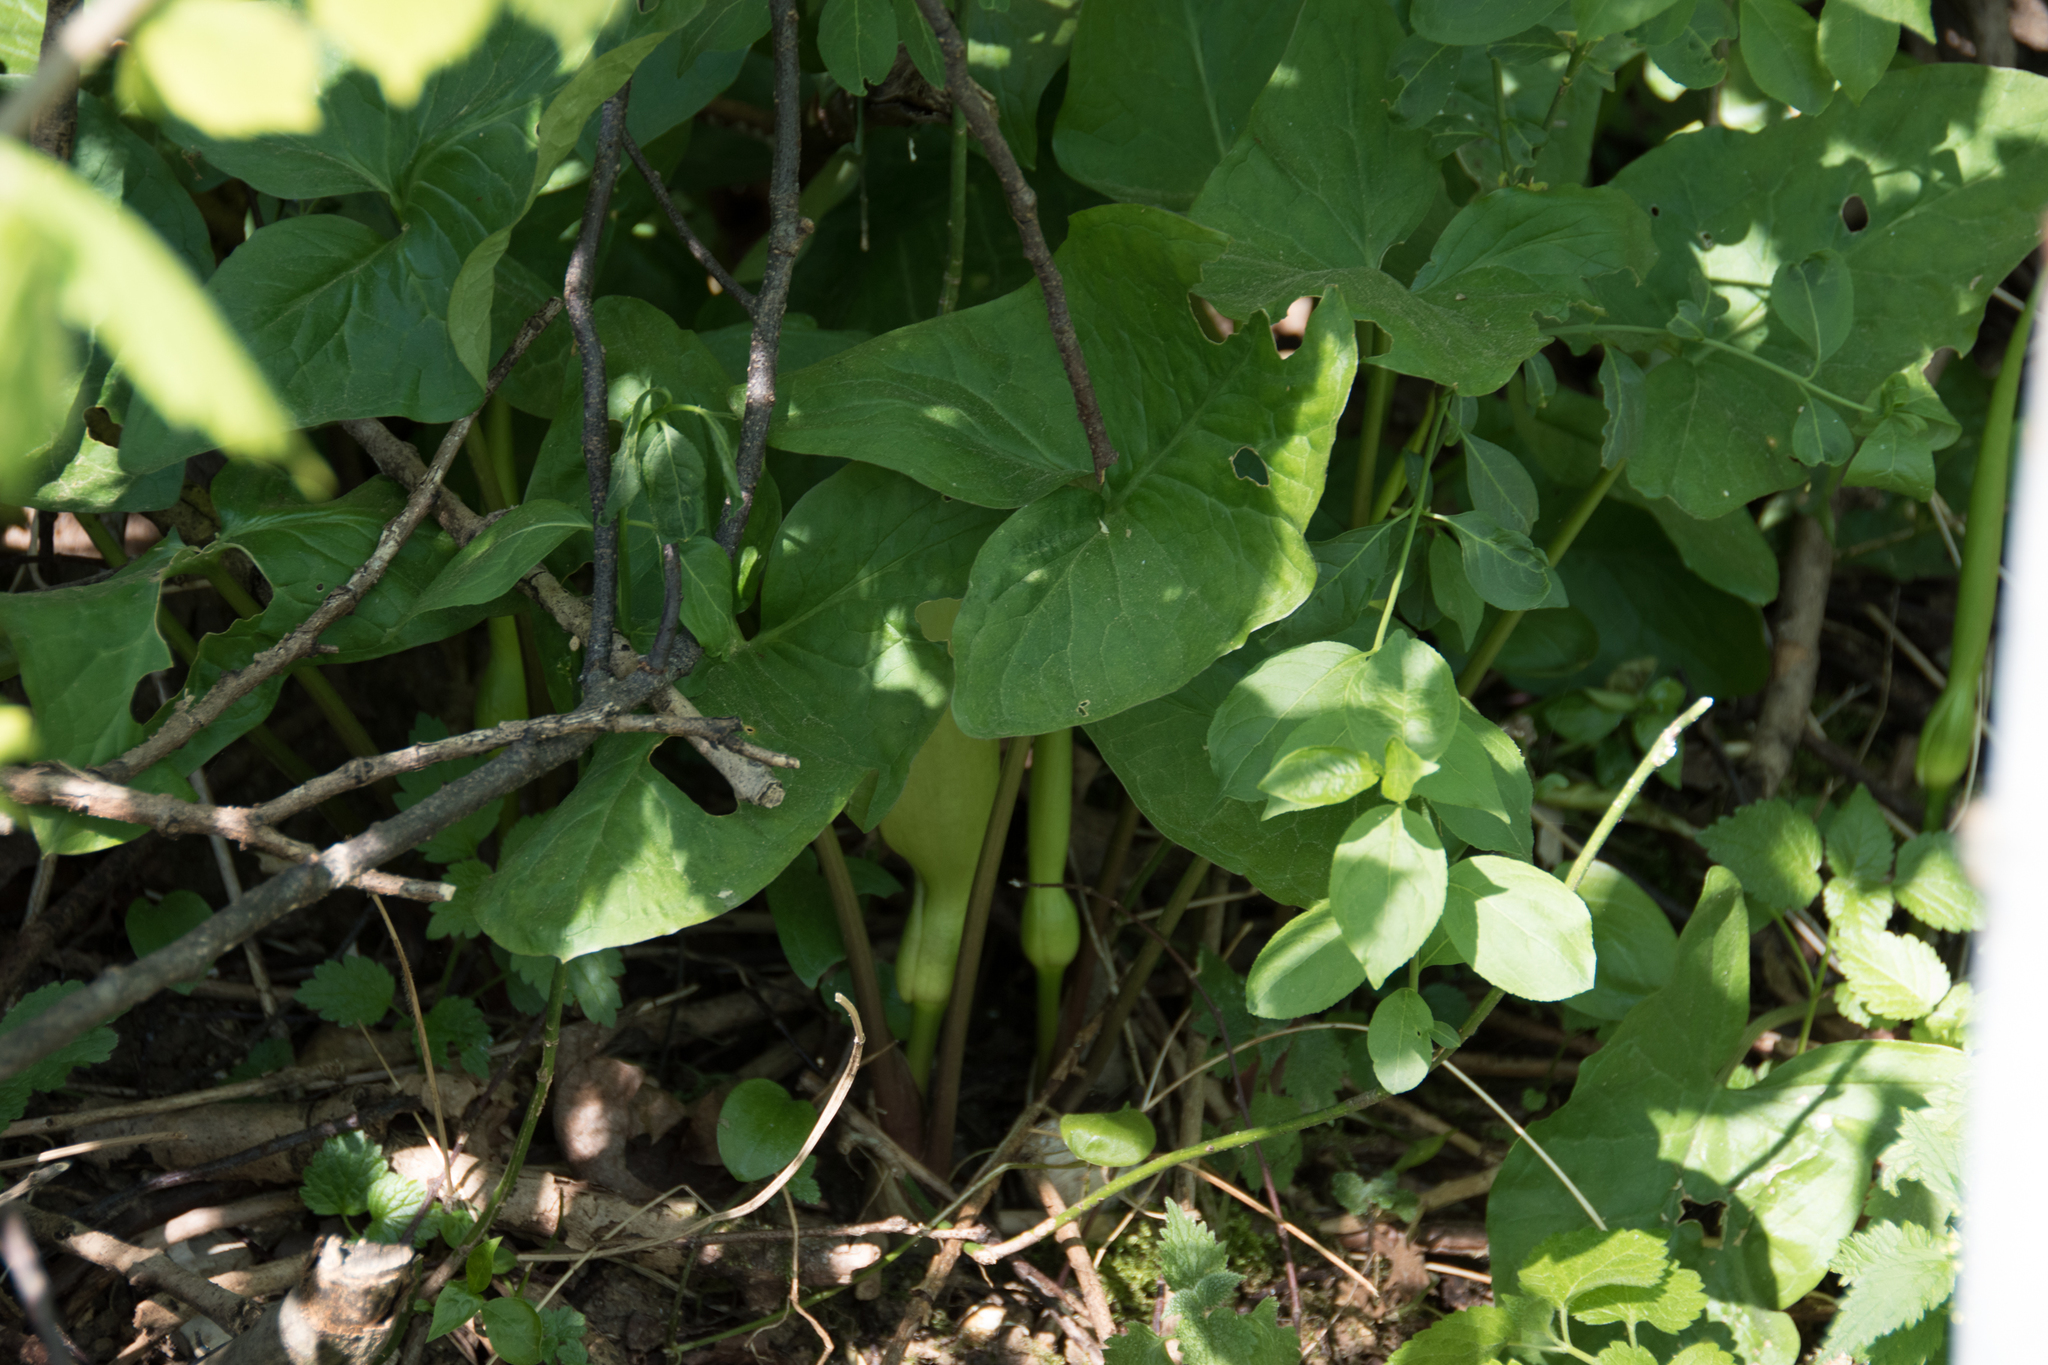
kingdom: Plantae
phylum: Tracheophyta
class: Liliopsida
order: Alismatales
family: Araceae
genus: Arum
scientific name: Arum maculatum
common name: Lords-and-ladies
